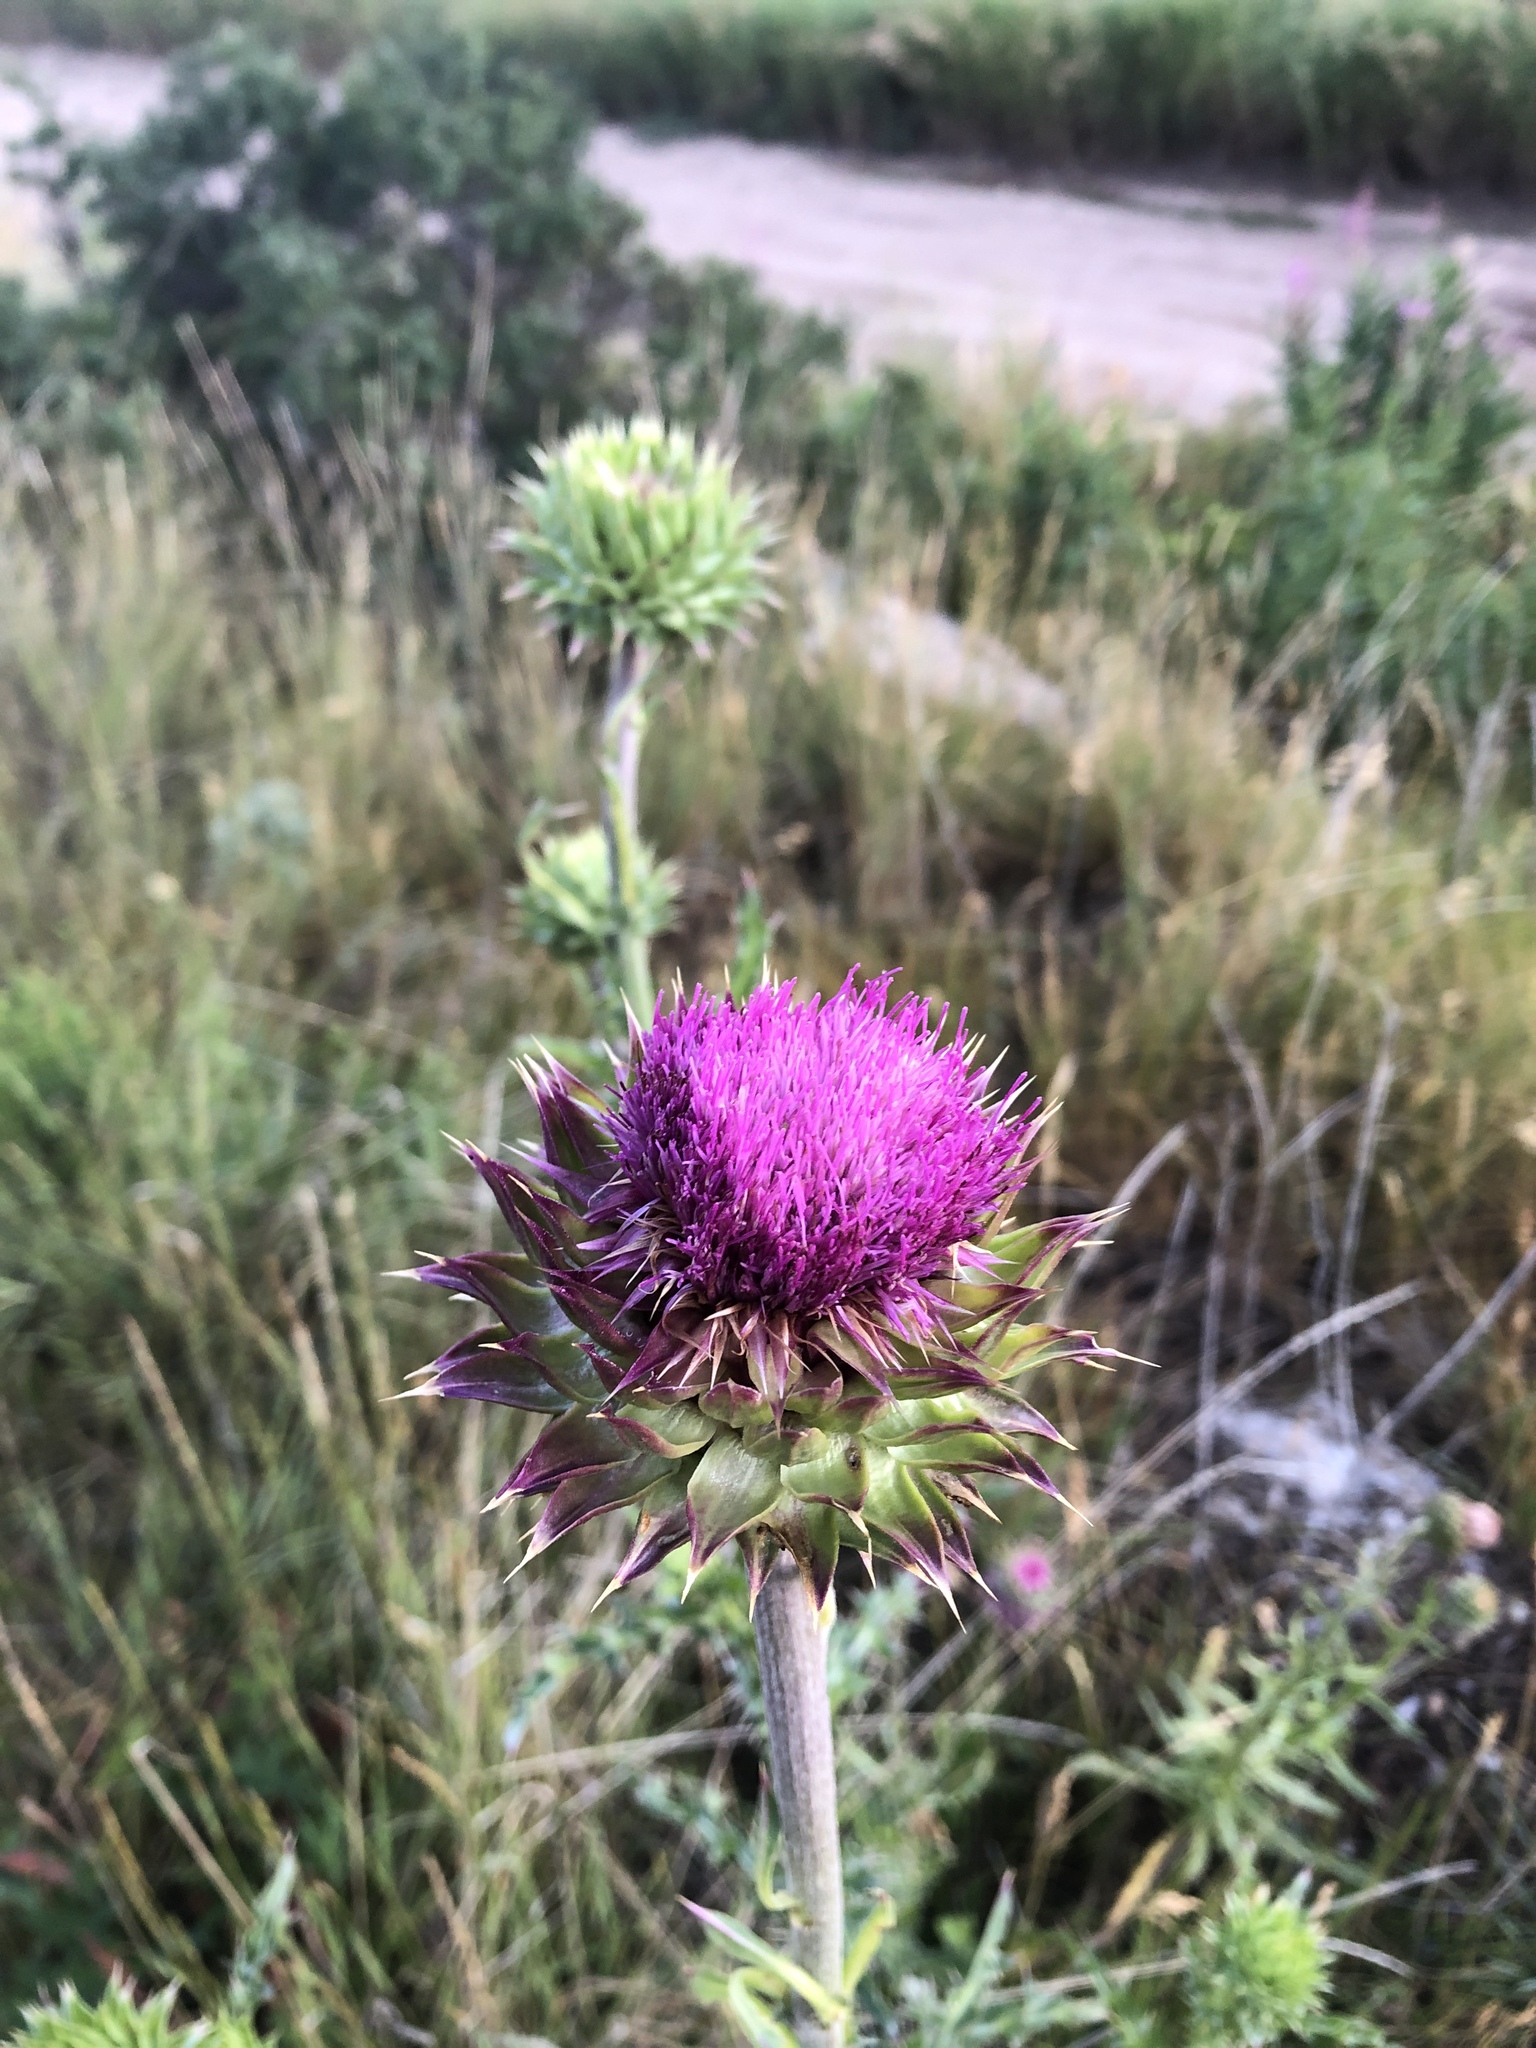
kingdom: Plantae
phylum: Tracheophyta
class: Magnoliopsida
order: Asterales
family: Asteraceae
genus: Carduus
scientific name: Carduus nutans
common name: Musk thistle
